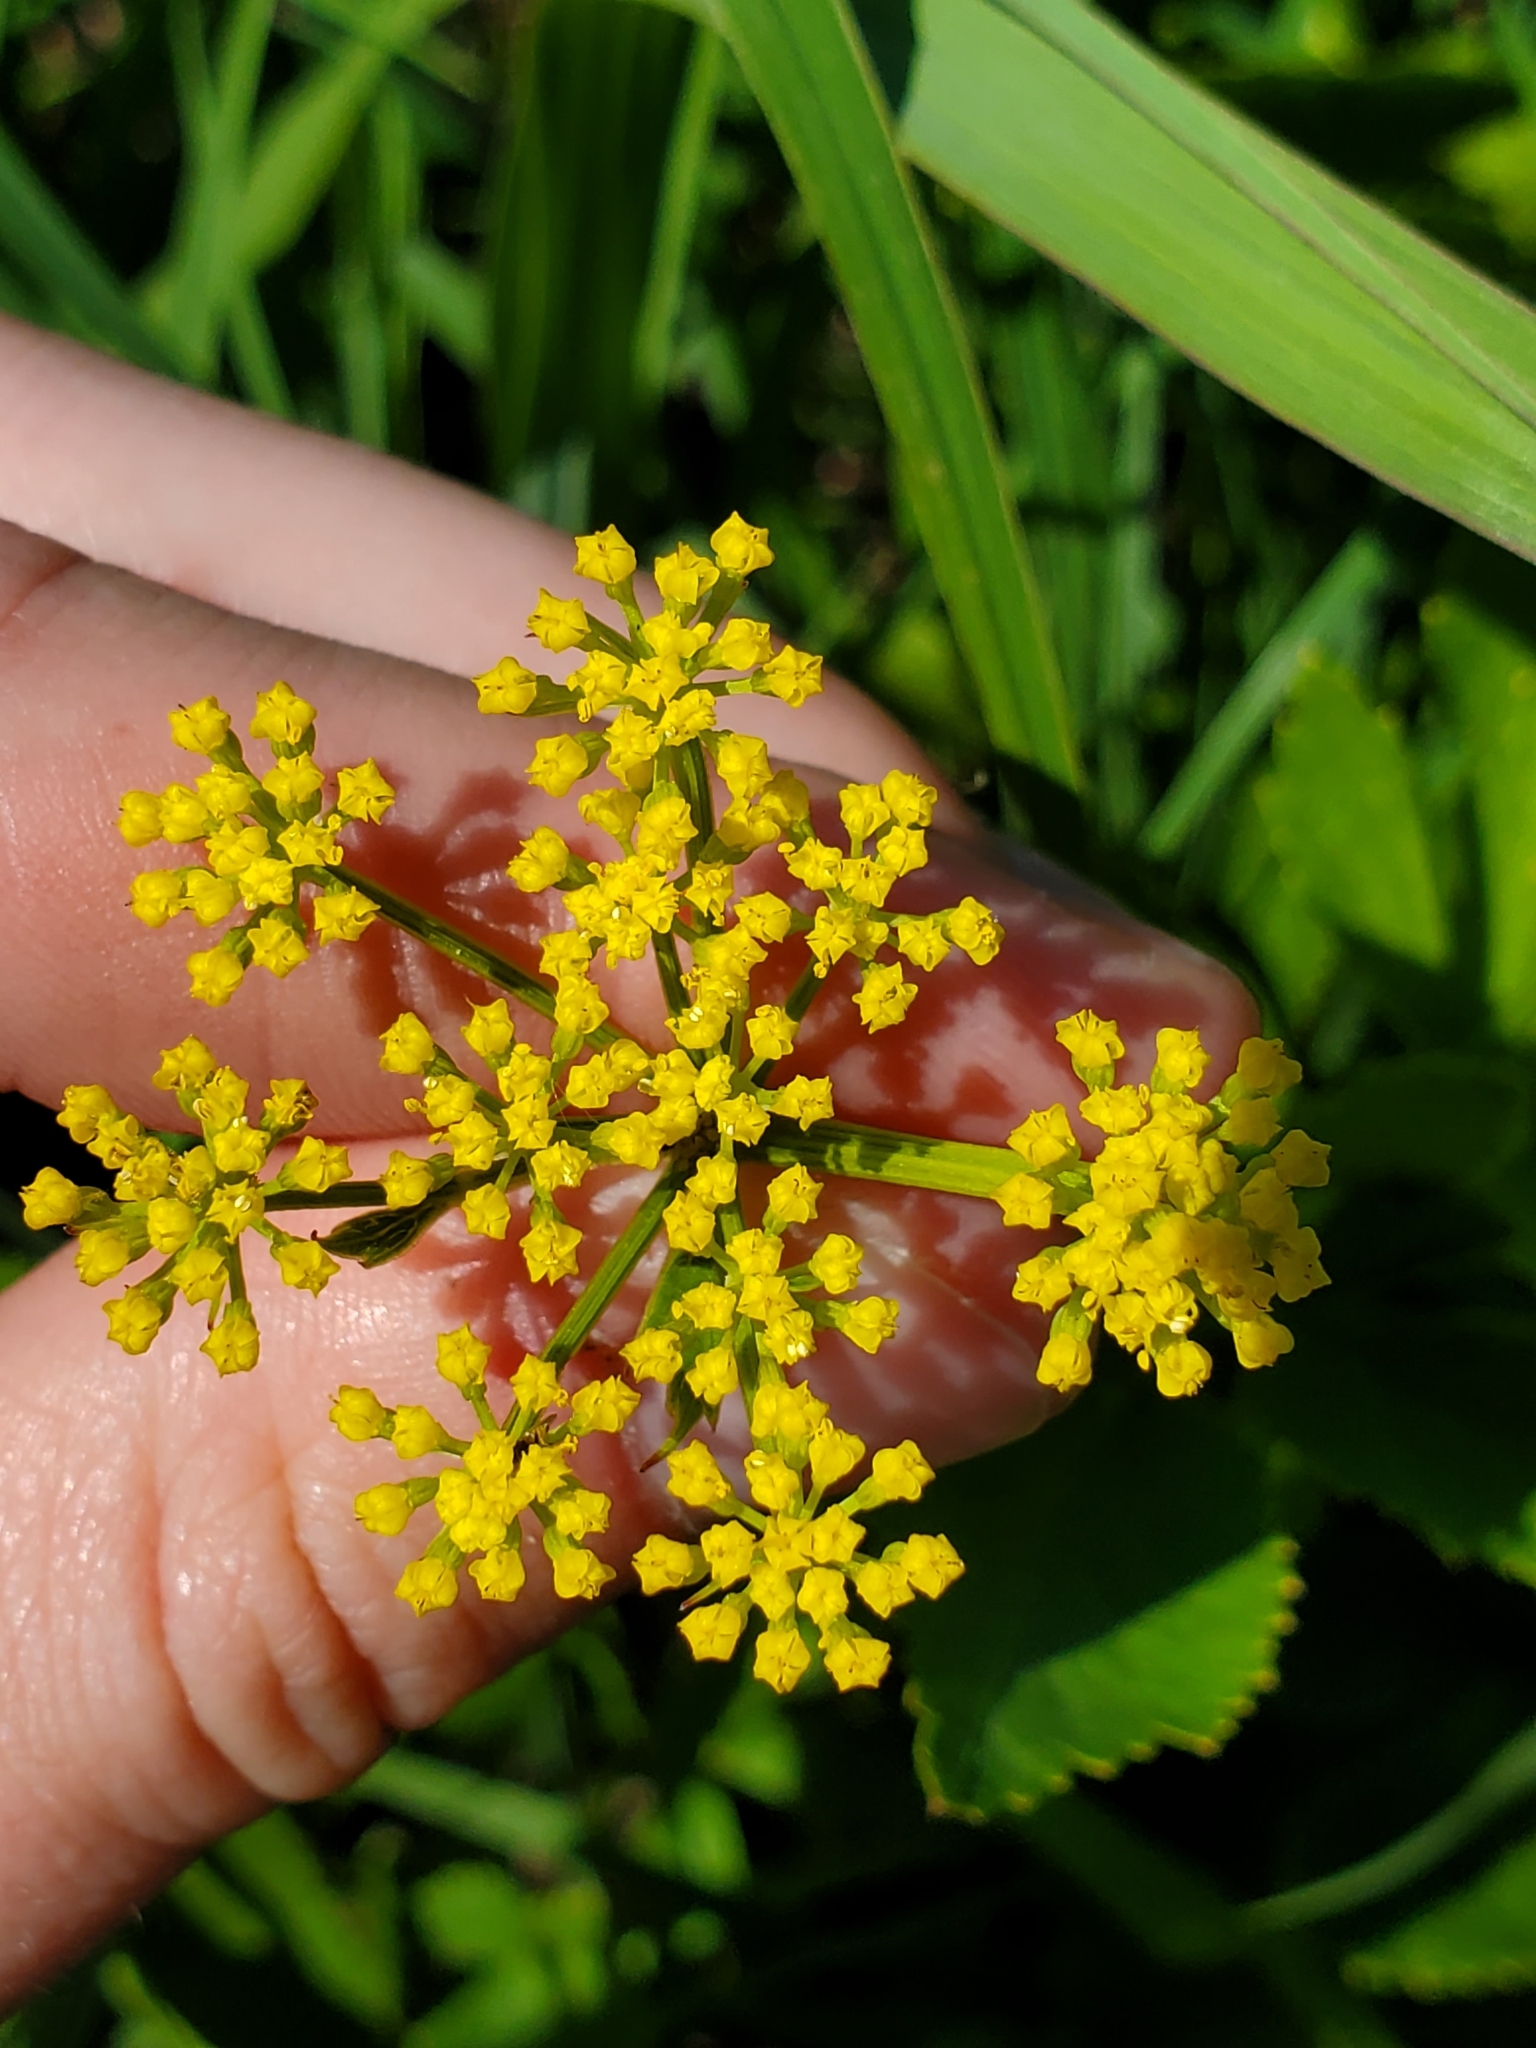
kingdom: Plantae
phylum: Tracheophyta
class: Magnoliopsida
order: Apiales
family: Apiaceae
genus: Zizia
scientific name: Zizia aurea
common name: Golden alexanders
